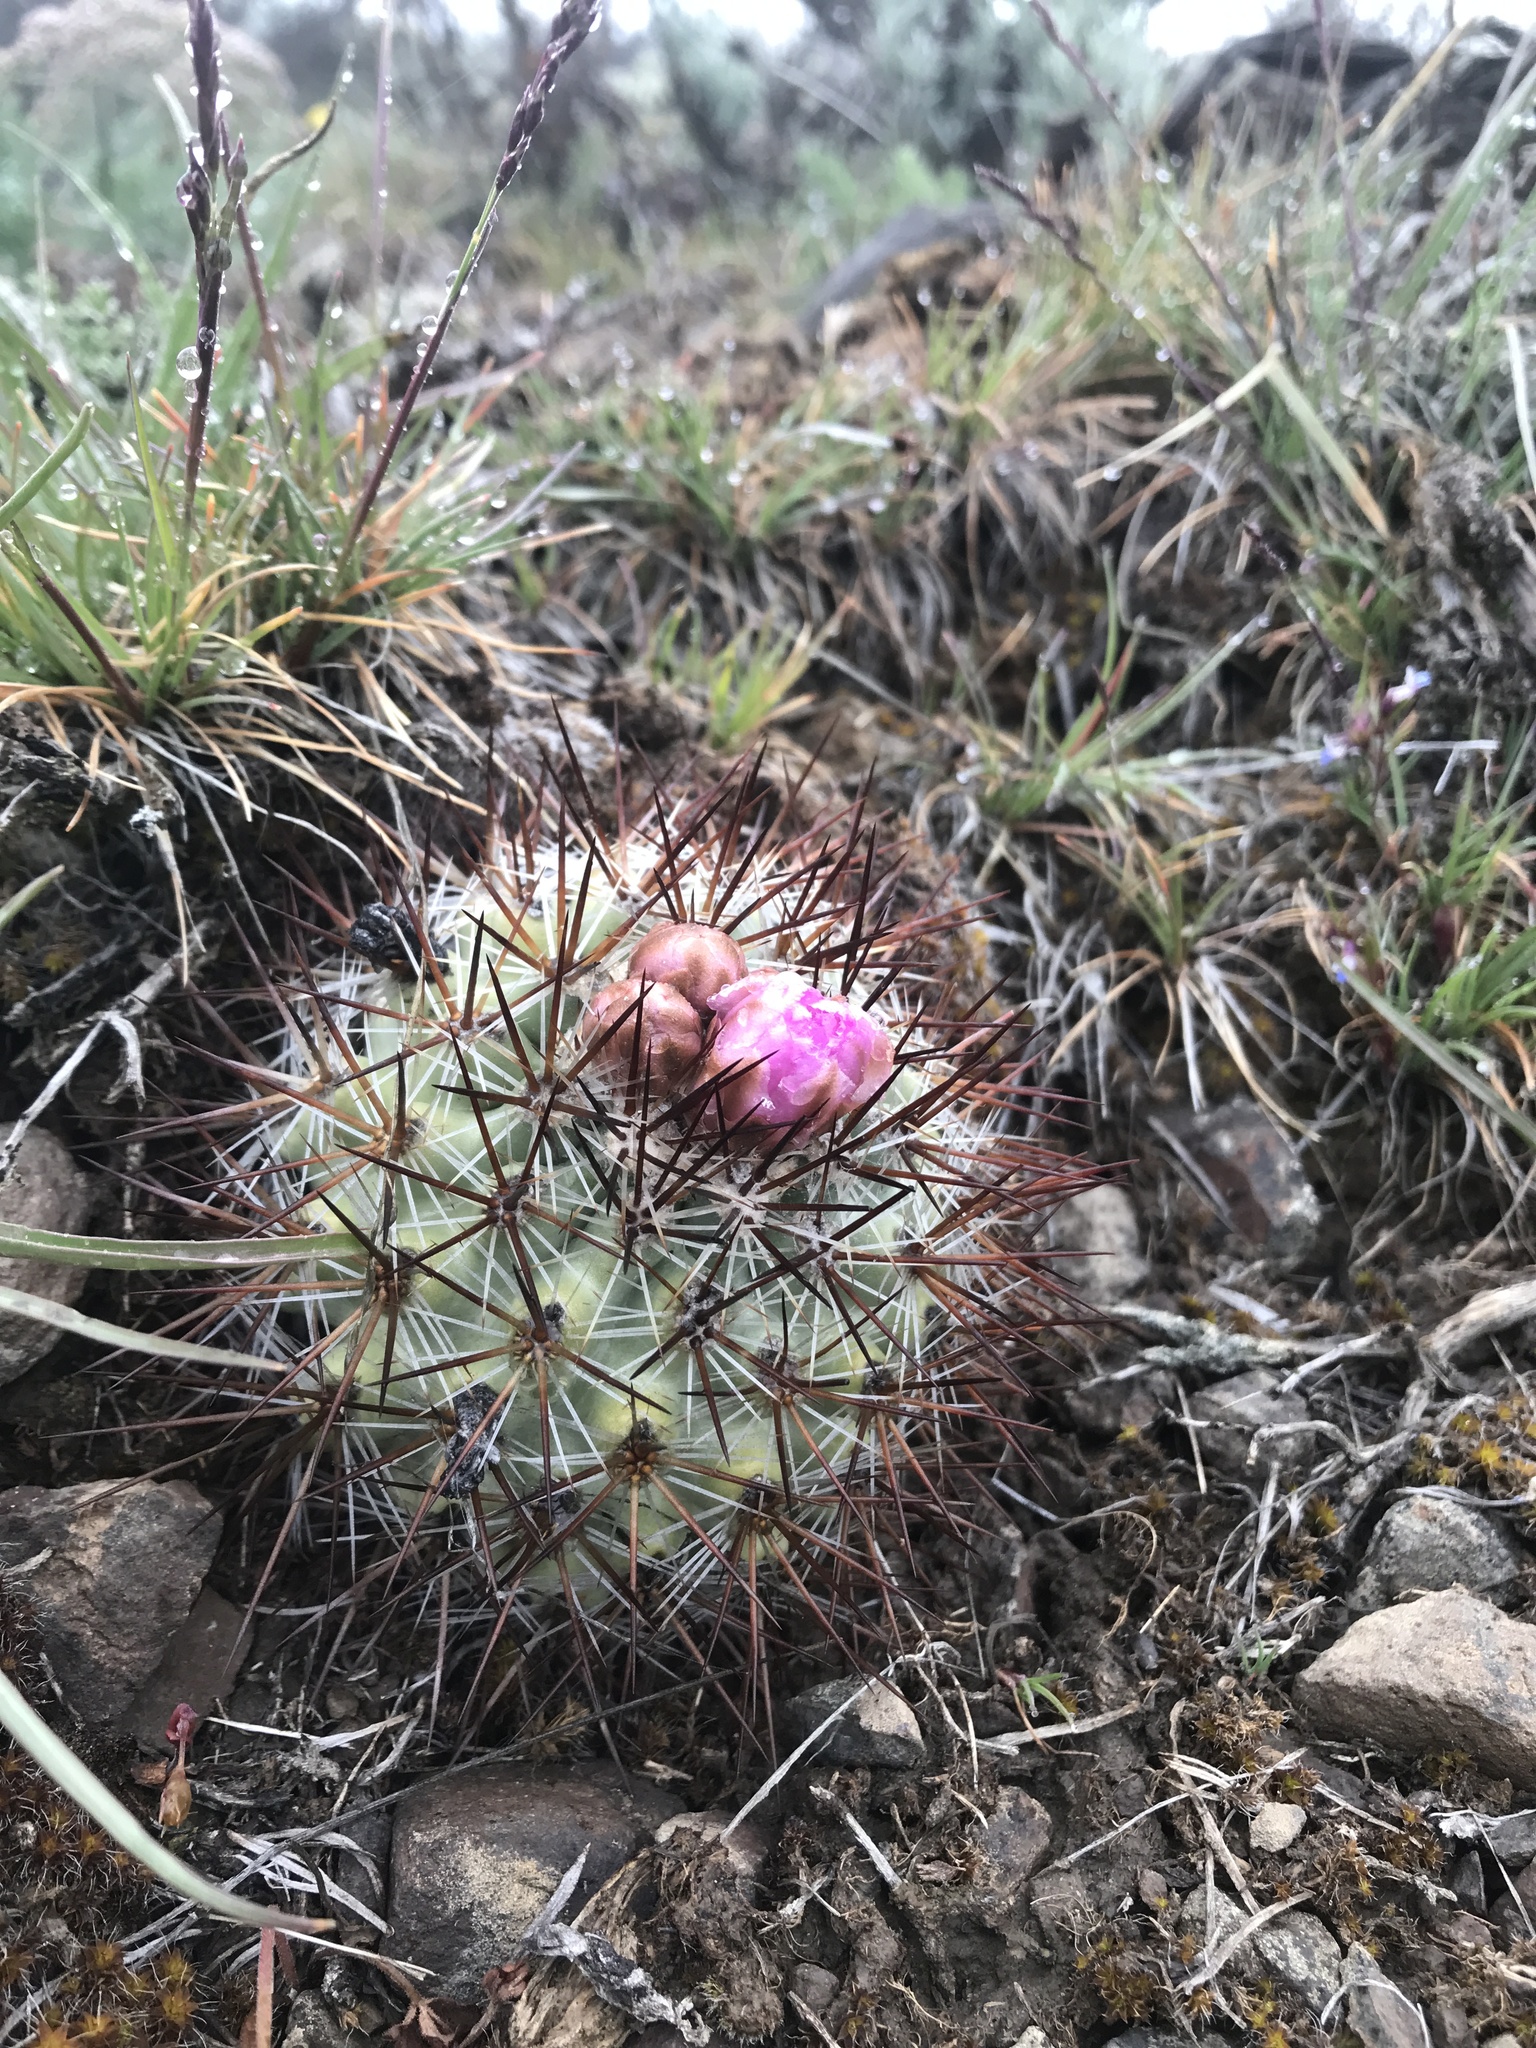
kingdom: Plantae
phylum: Tracheophyta
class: Magnoliopsida
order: Caryophyllales
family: Cactaceae
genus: Pediocactus
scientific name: Pediocactus nigrispinus
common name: Simpson's hedgehog cactus
